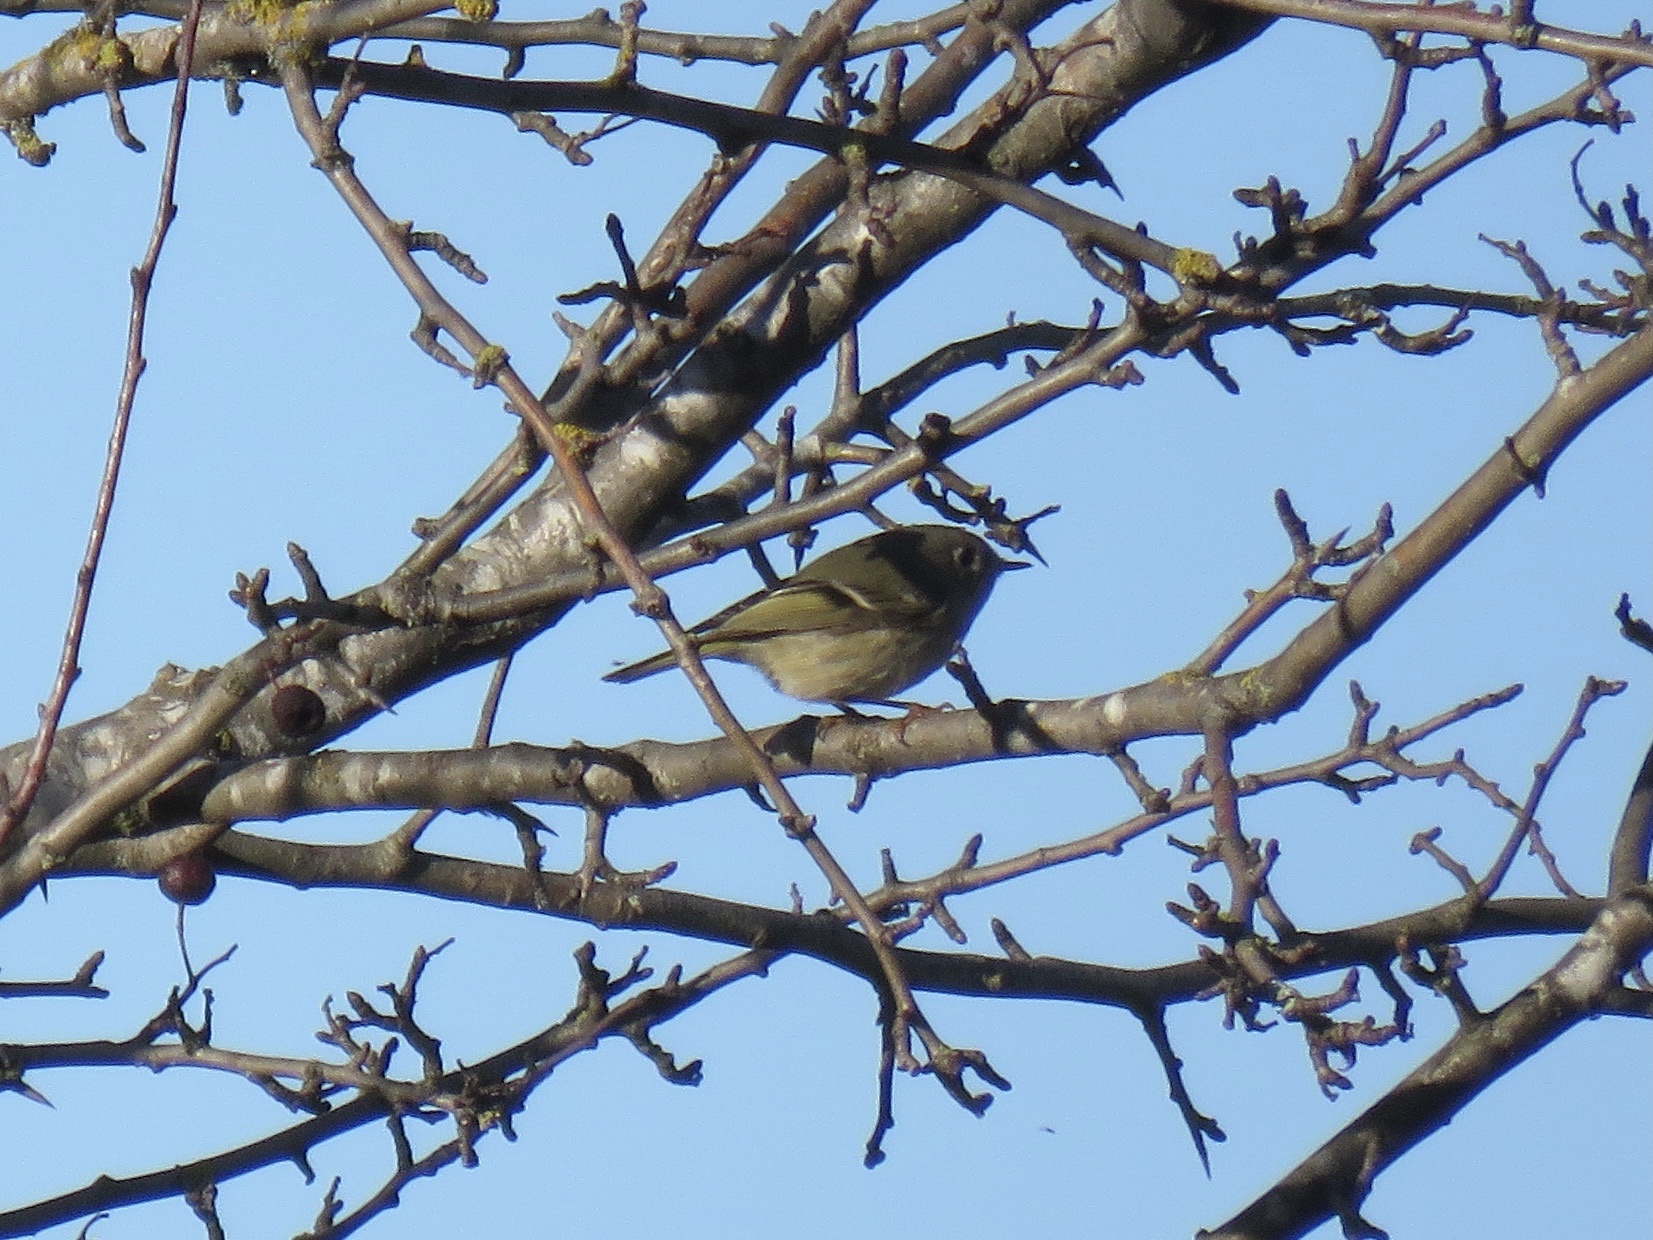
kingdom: Animalia
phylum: Chordata
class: Aves
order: Passeriformes
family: Regulidae
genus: Regulus
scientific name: Regulus calendula
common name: Ruby-crowned kinglet
